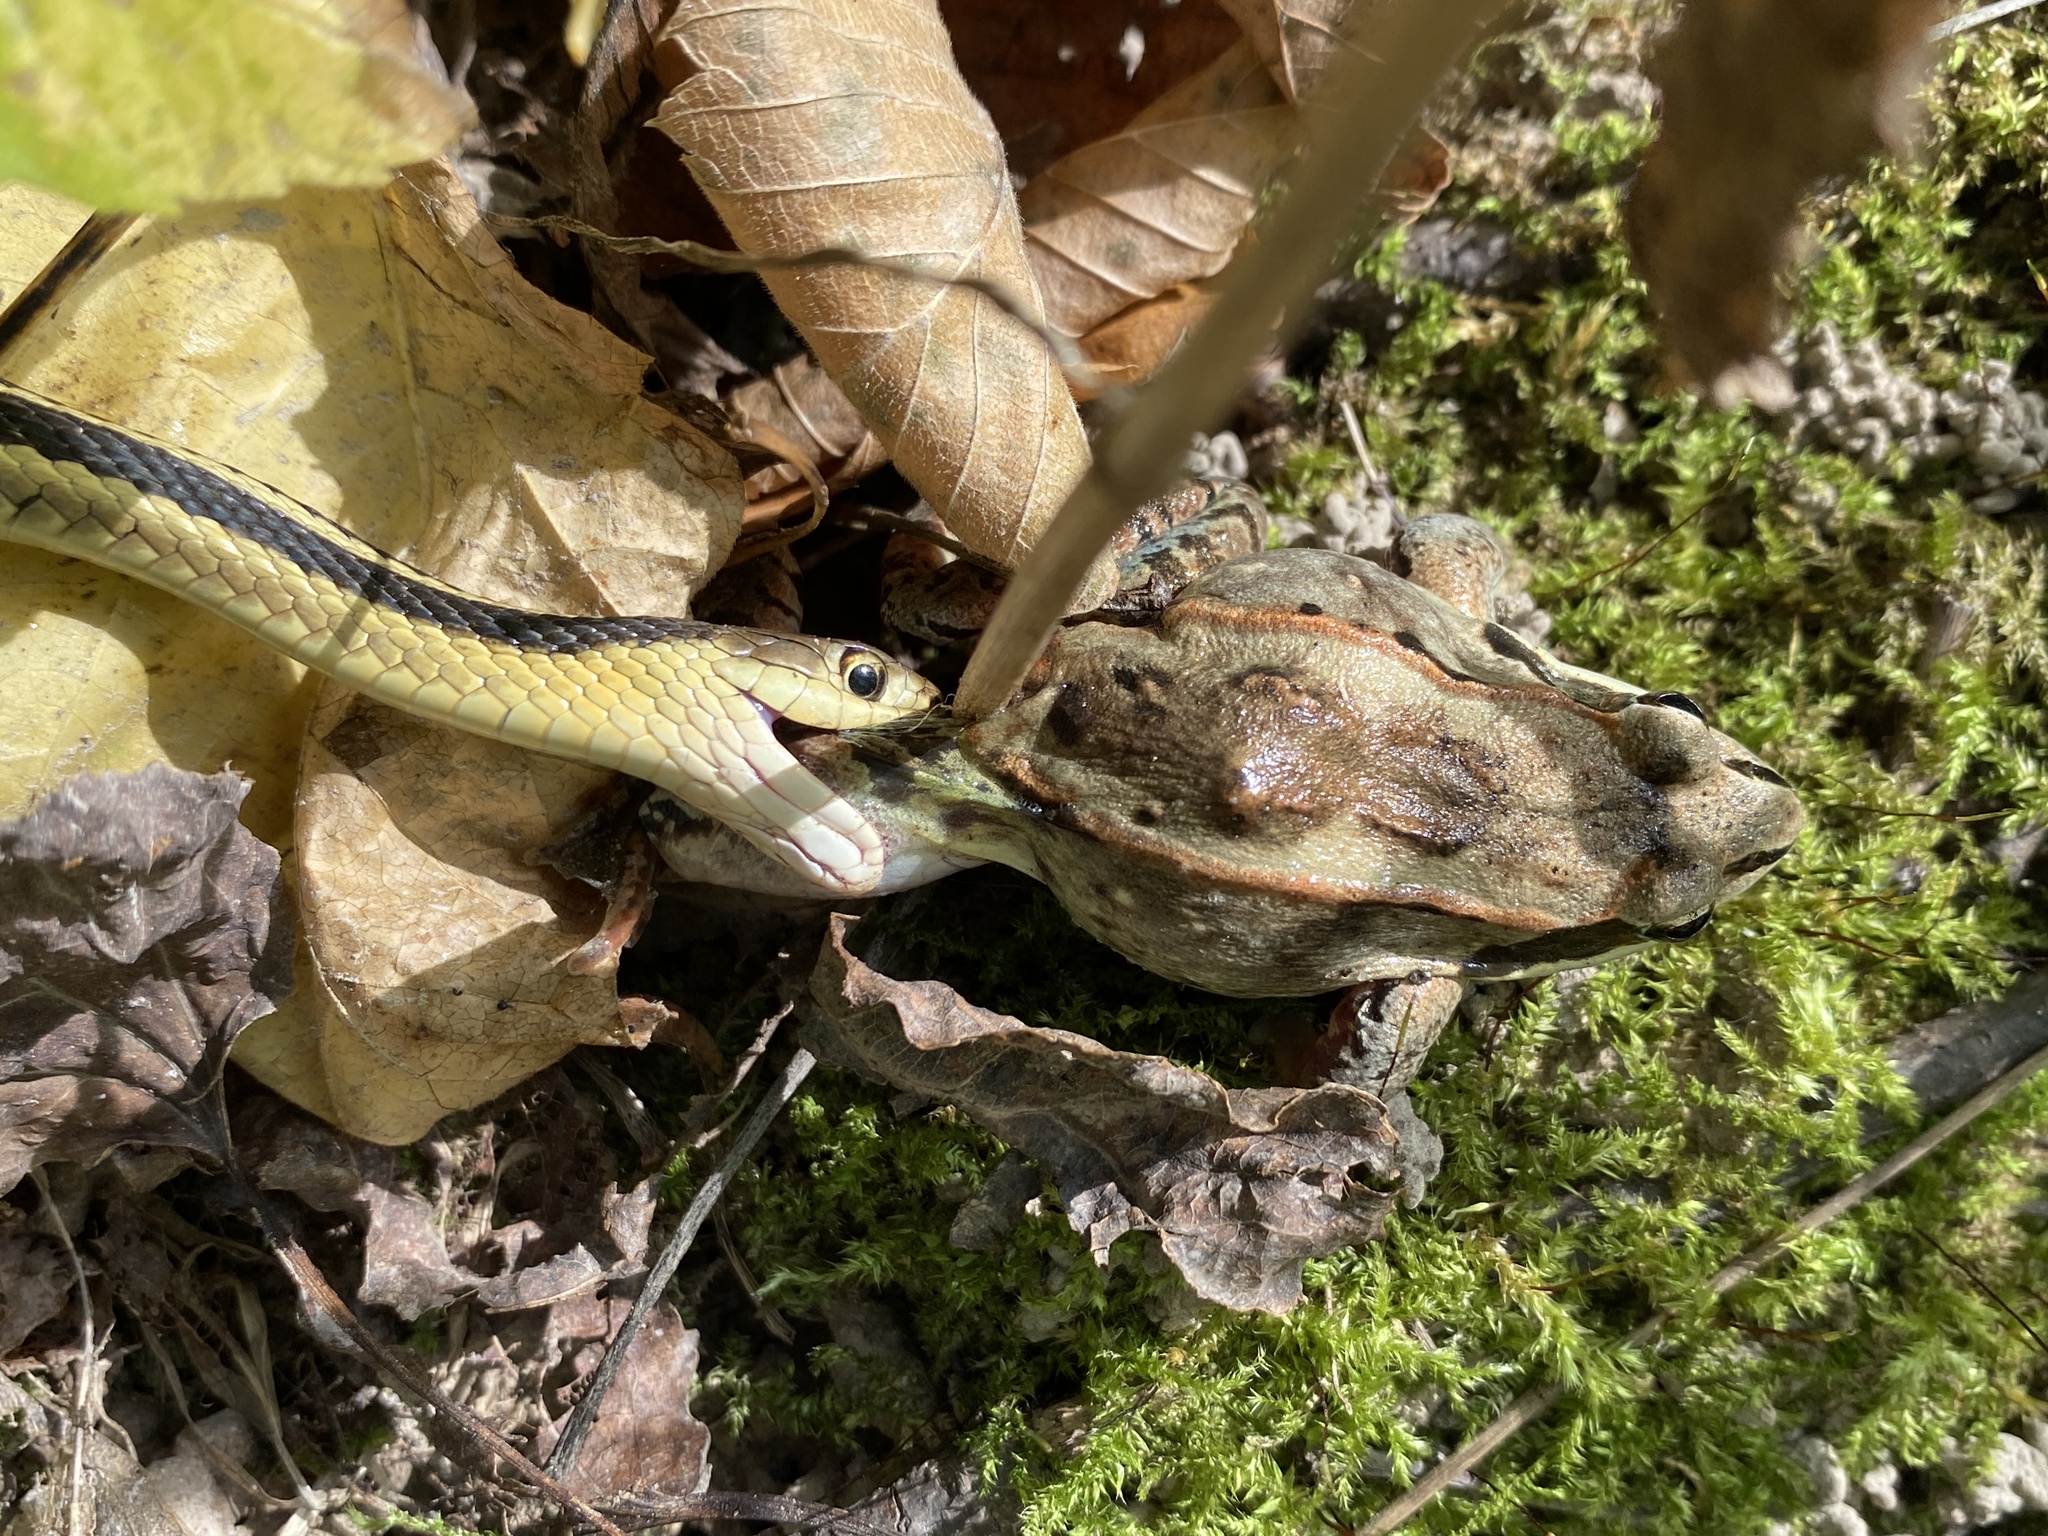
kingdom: Animalia
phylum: Chordata
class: Squamata
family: Colubridae
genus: Thamnophis
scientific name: Thamnophis sirtalis
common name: Common garter snake
